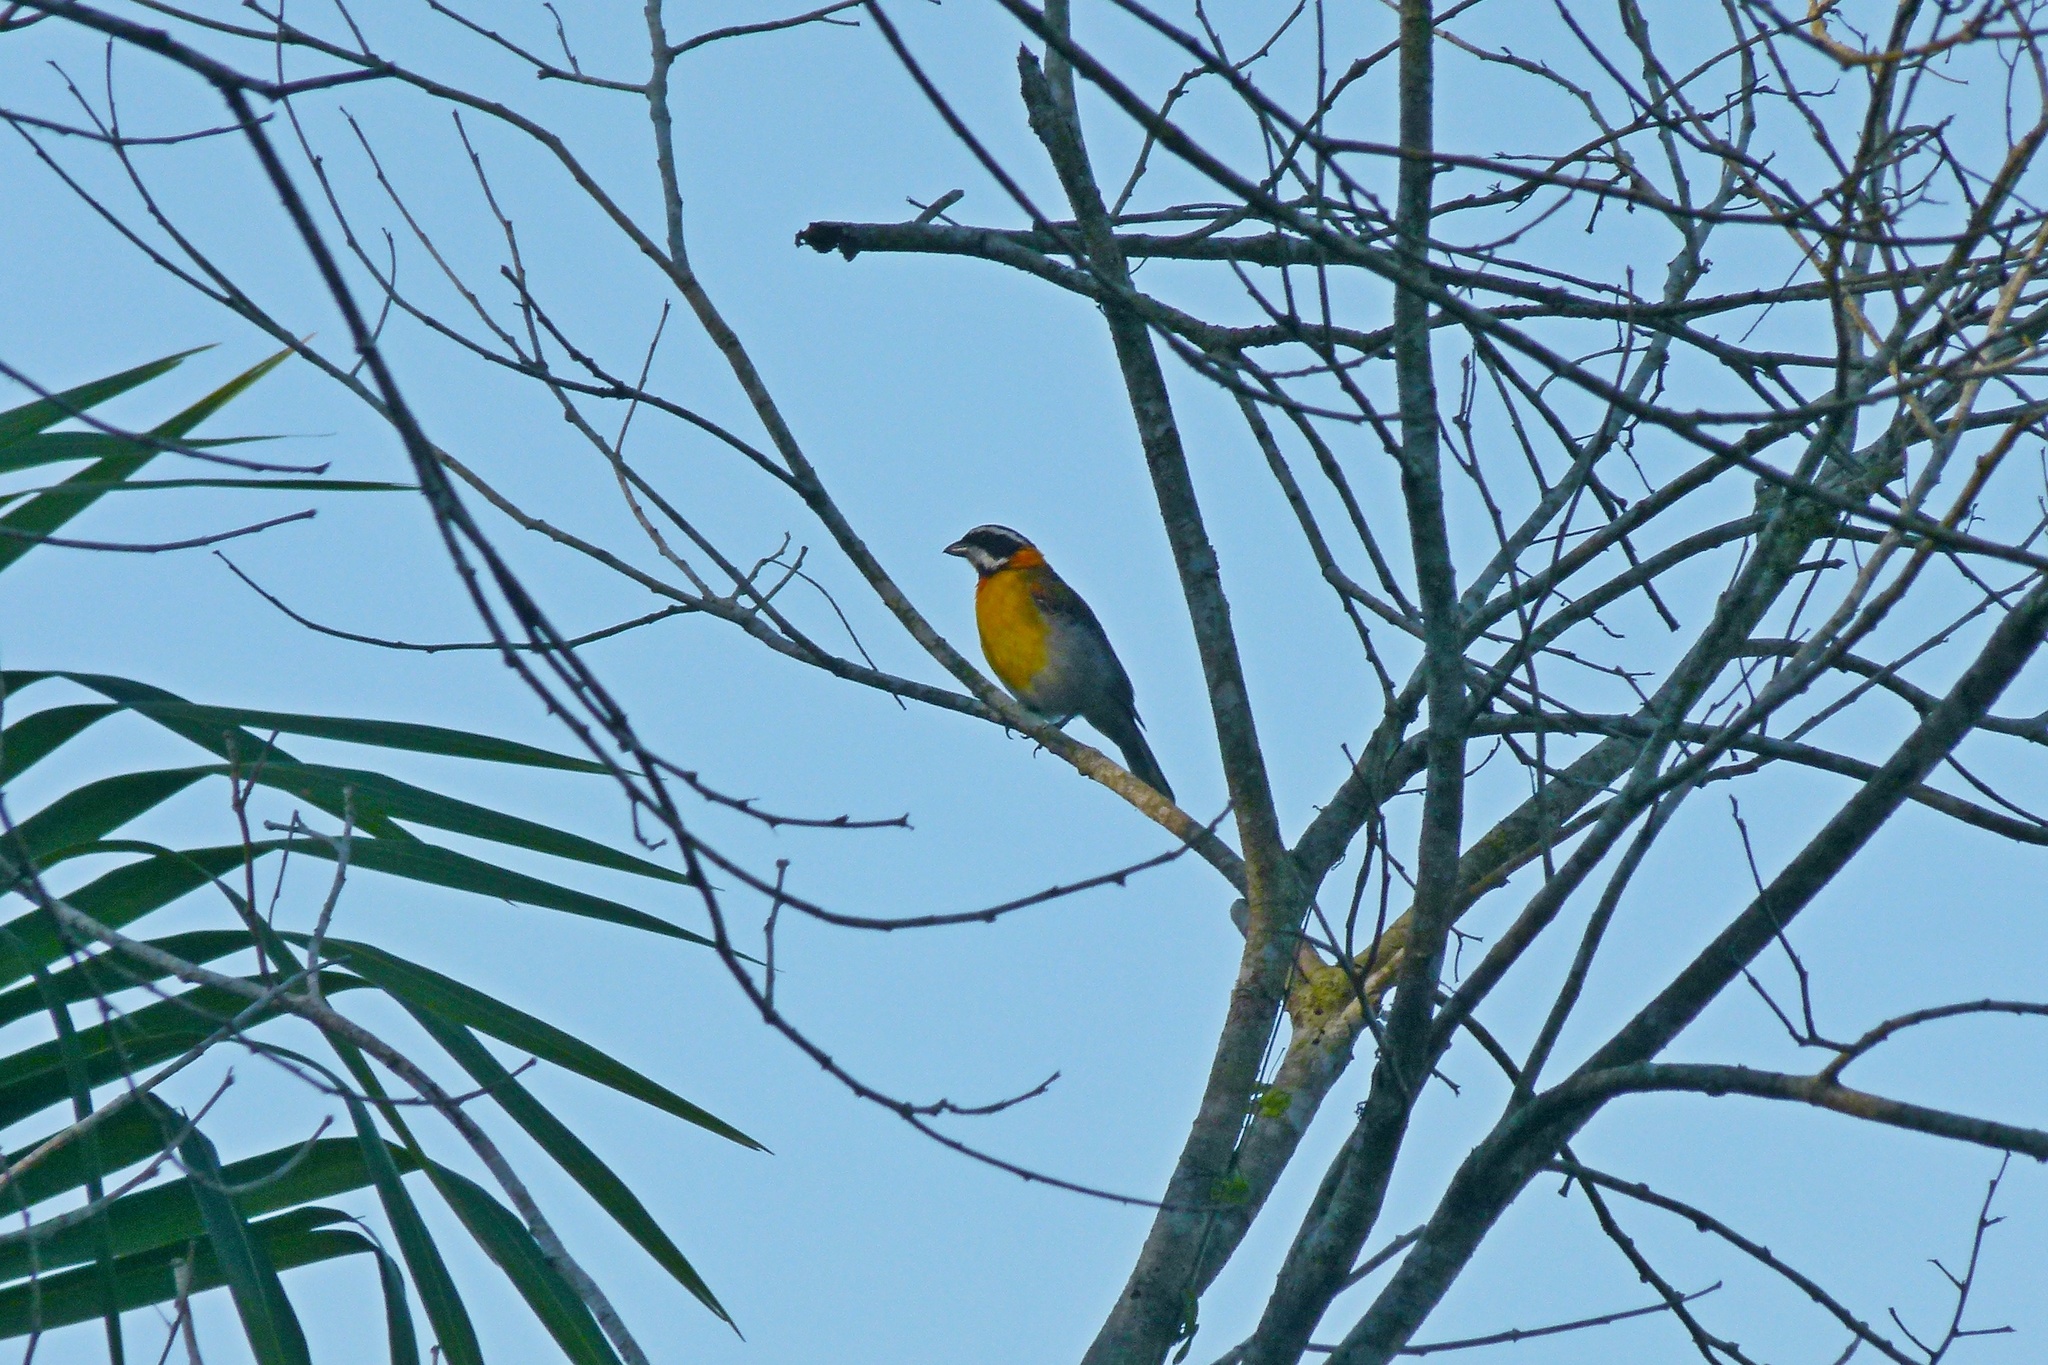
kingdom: Animalia
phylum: Chordata
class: Aves
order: Passeriformes
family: Spindalidae
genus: Spindalis
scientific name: Spindalis portoricensis
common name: Puerto rican spindalis
